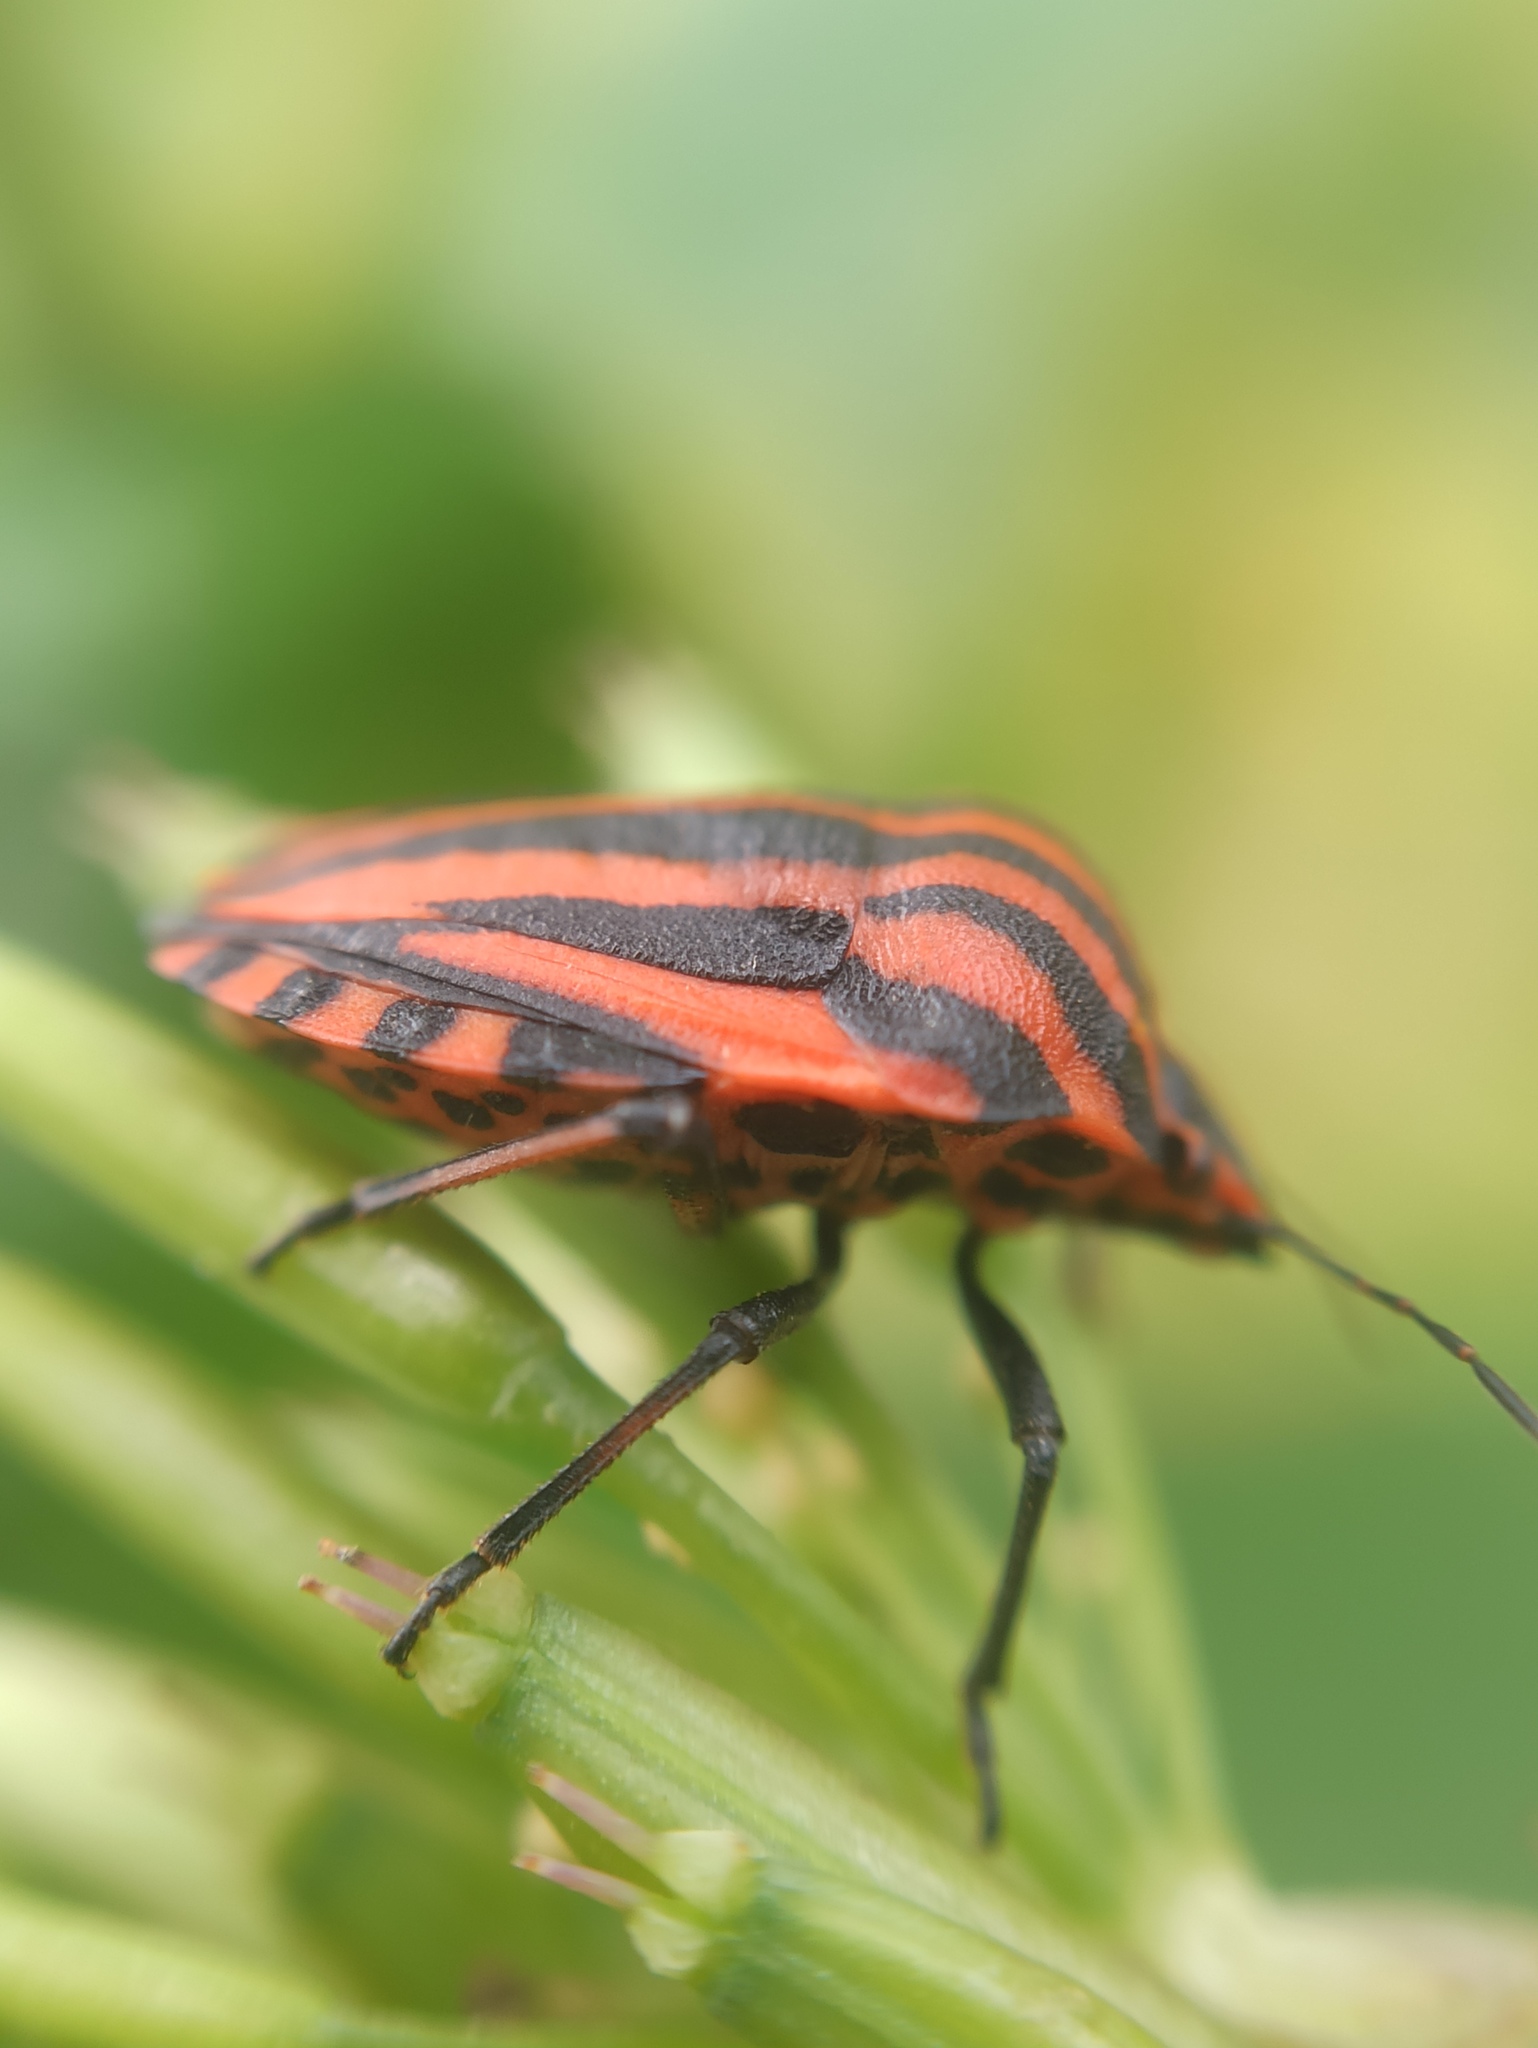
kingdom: Animalia
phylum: Arthropoda
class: Insecta
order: Hemiptera
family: Pentatomidae
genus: Graphosoma
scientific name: Graphosoma italicum
